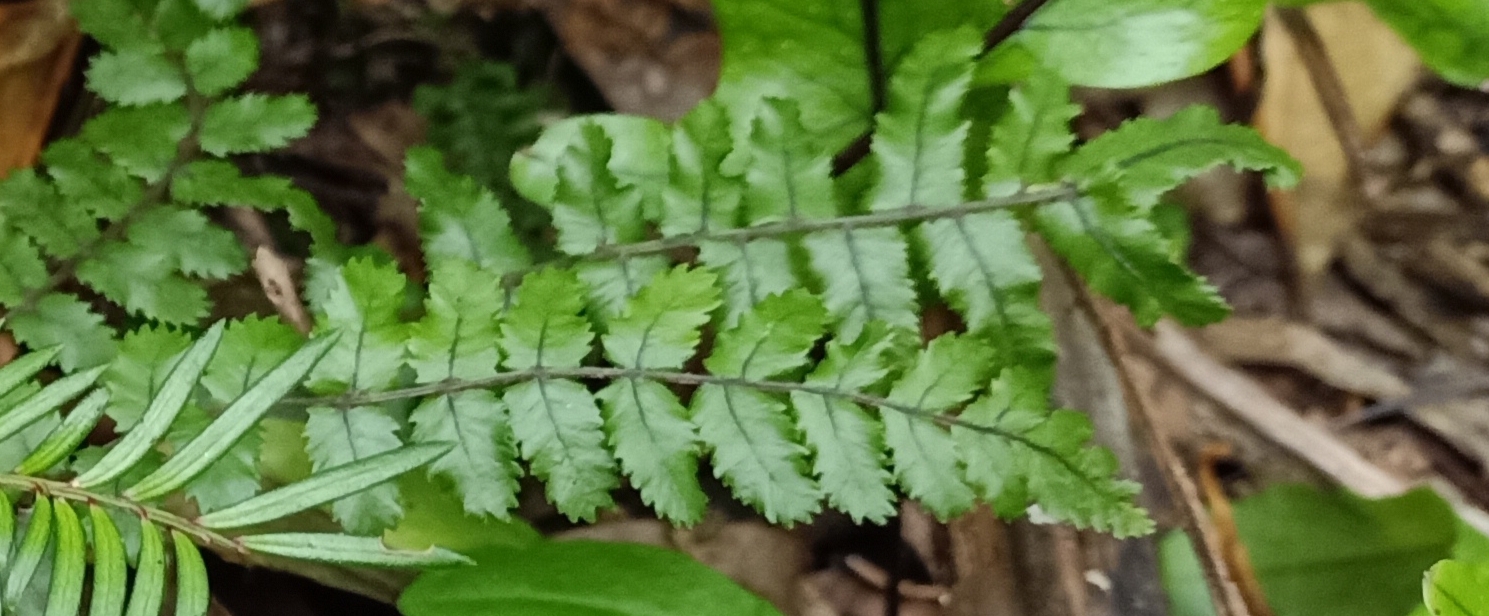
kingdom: Plantae
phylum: Tracheophyta
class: Polypodiopsida
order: Polypodiales
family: Blechnaceae
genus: Icarus
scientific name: Icarus filiformis
